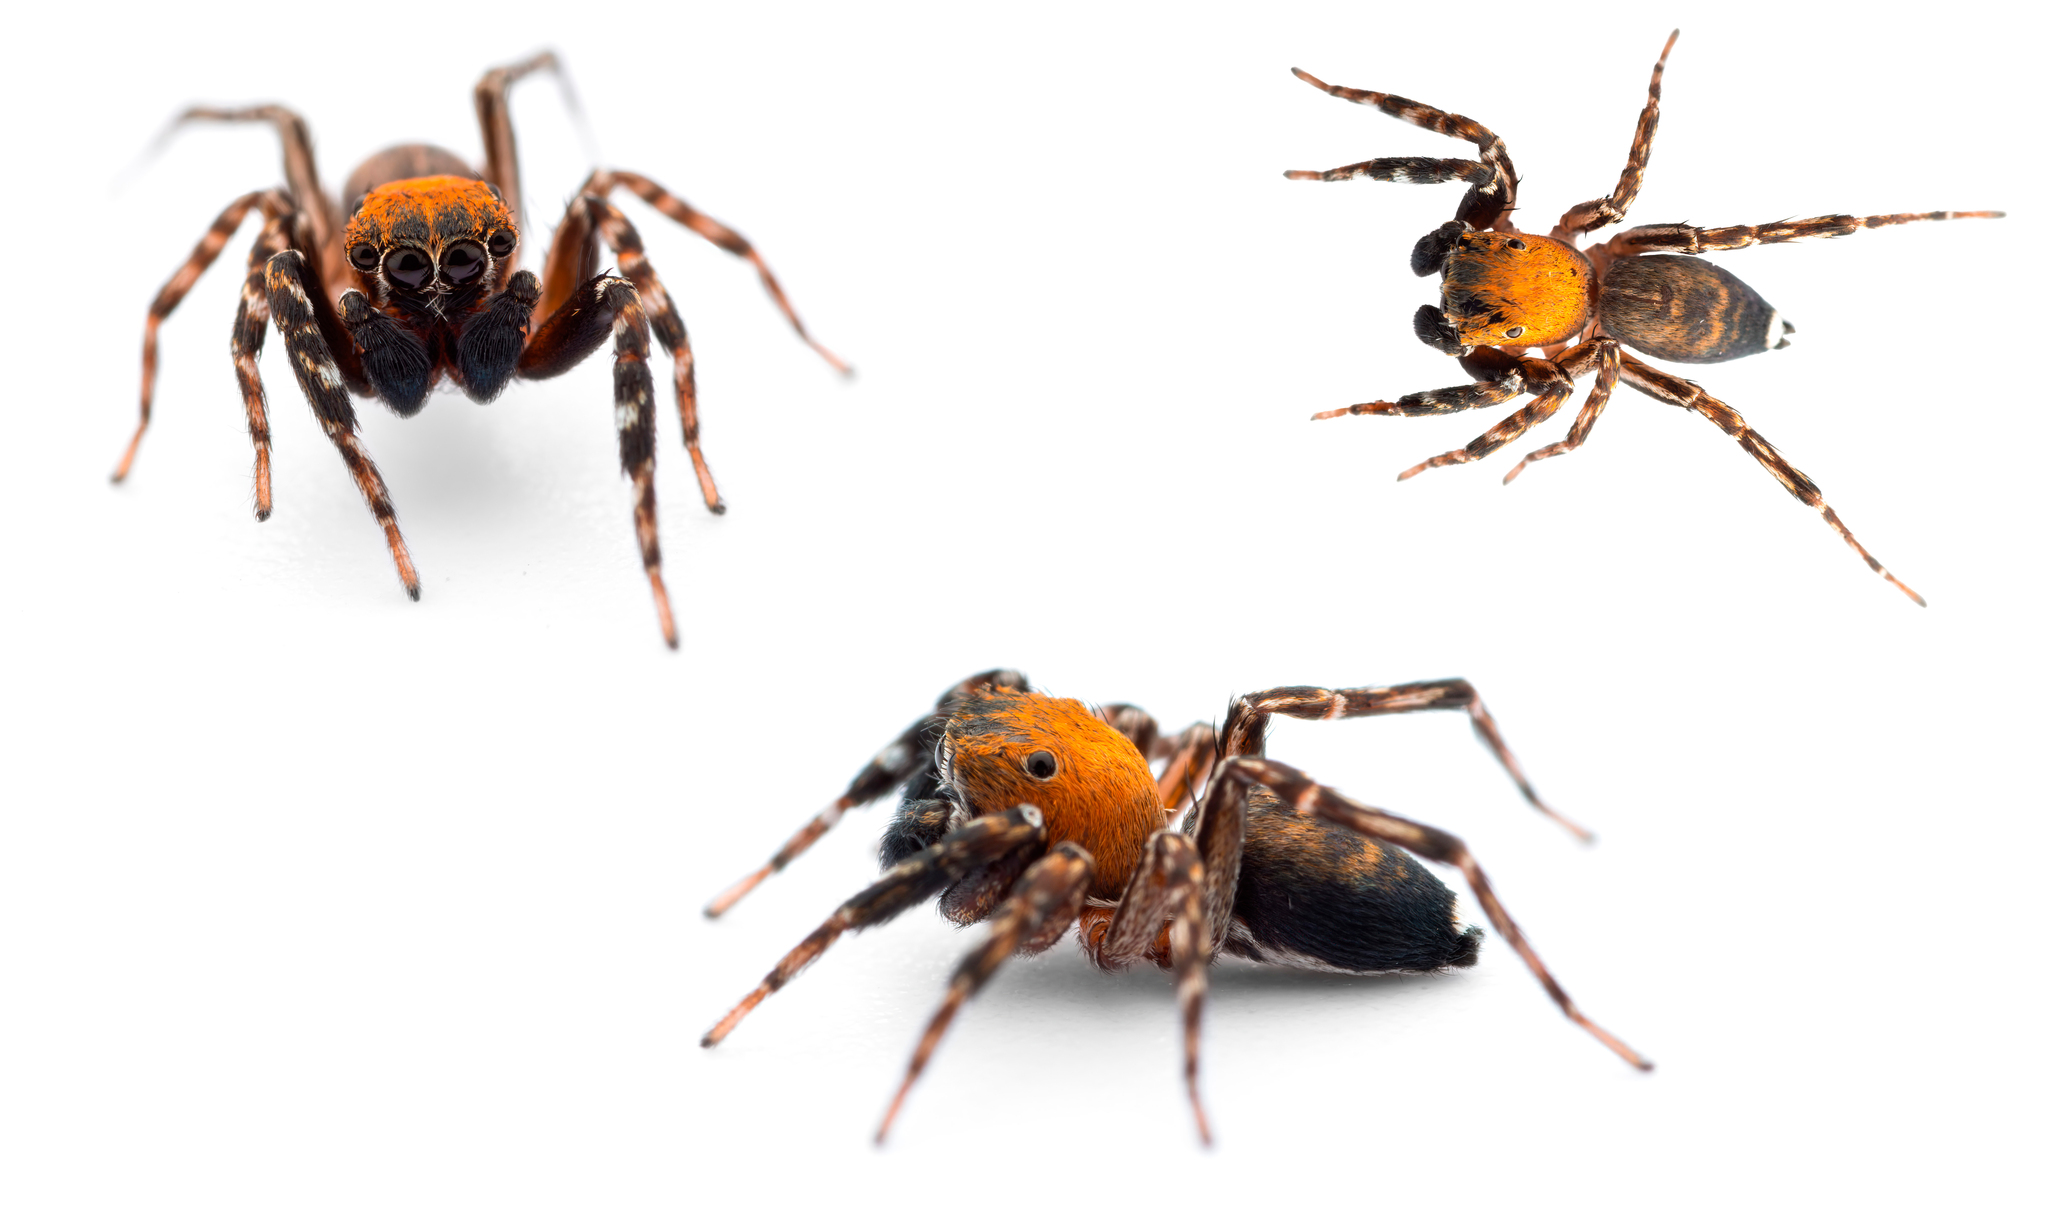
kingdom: Animalia
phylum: Arthropoda
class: Arachnida
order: Araneae
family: Salticidae
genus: Cyrba
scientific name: Cyrba algerina
